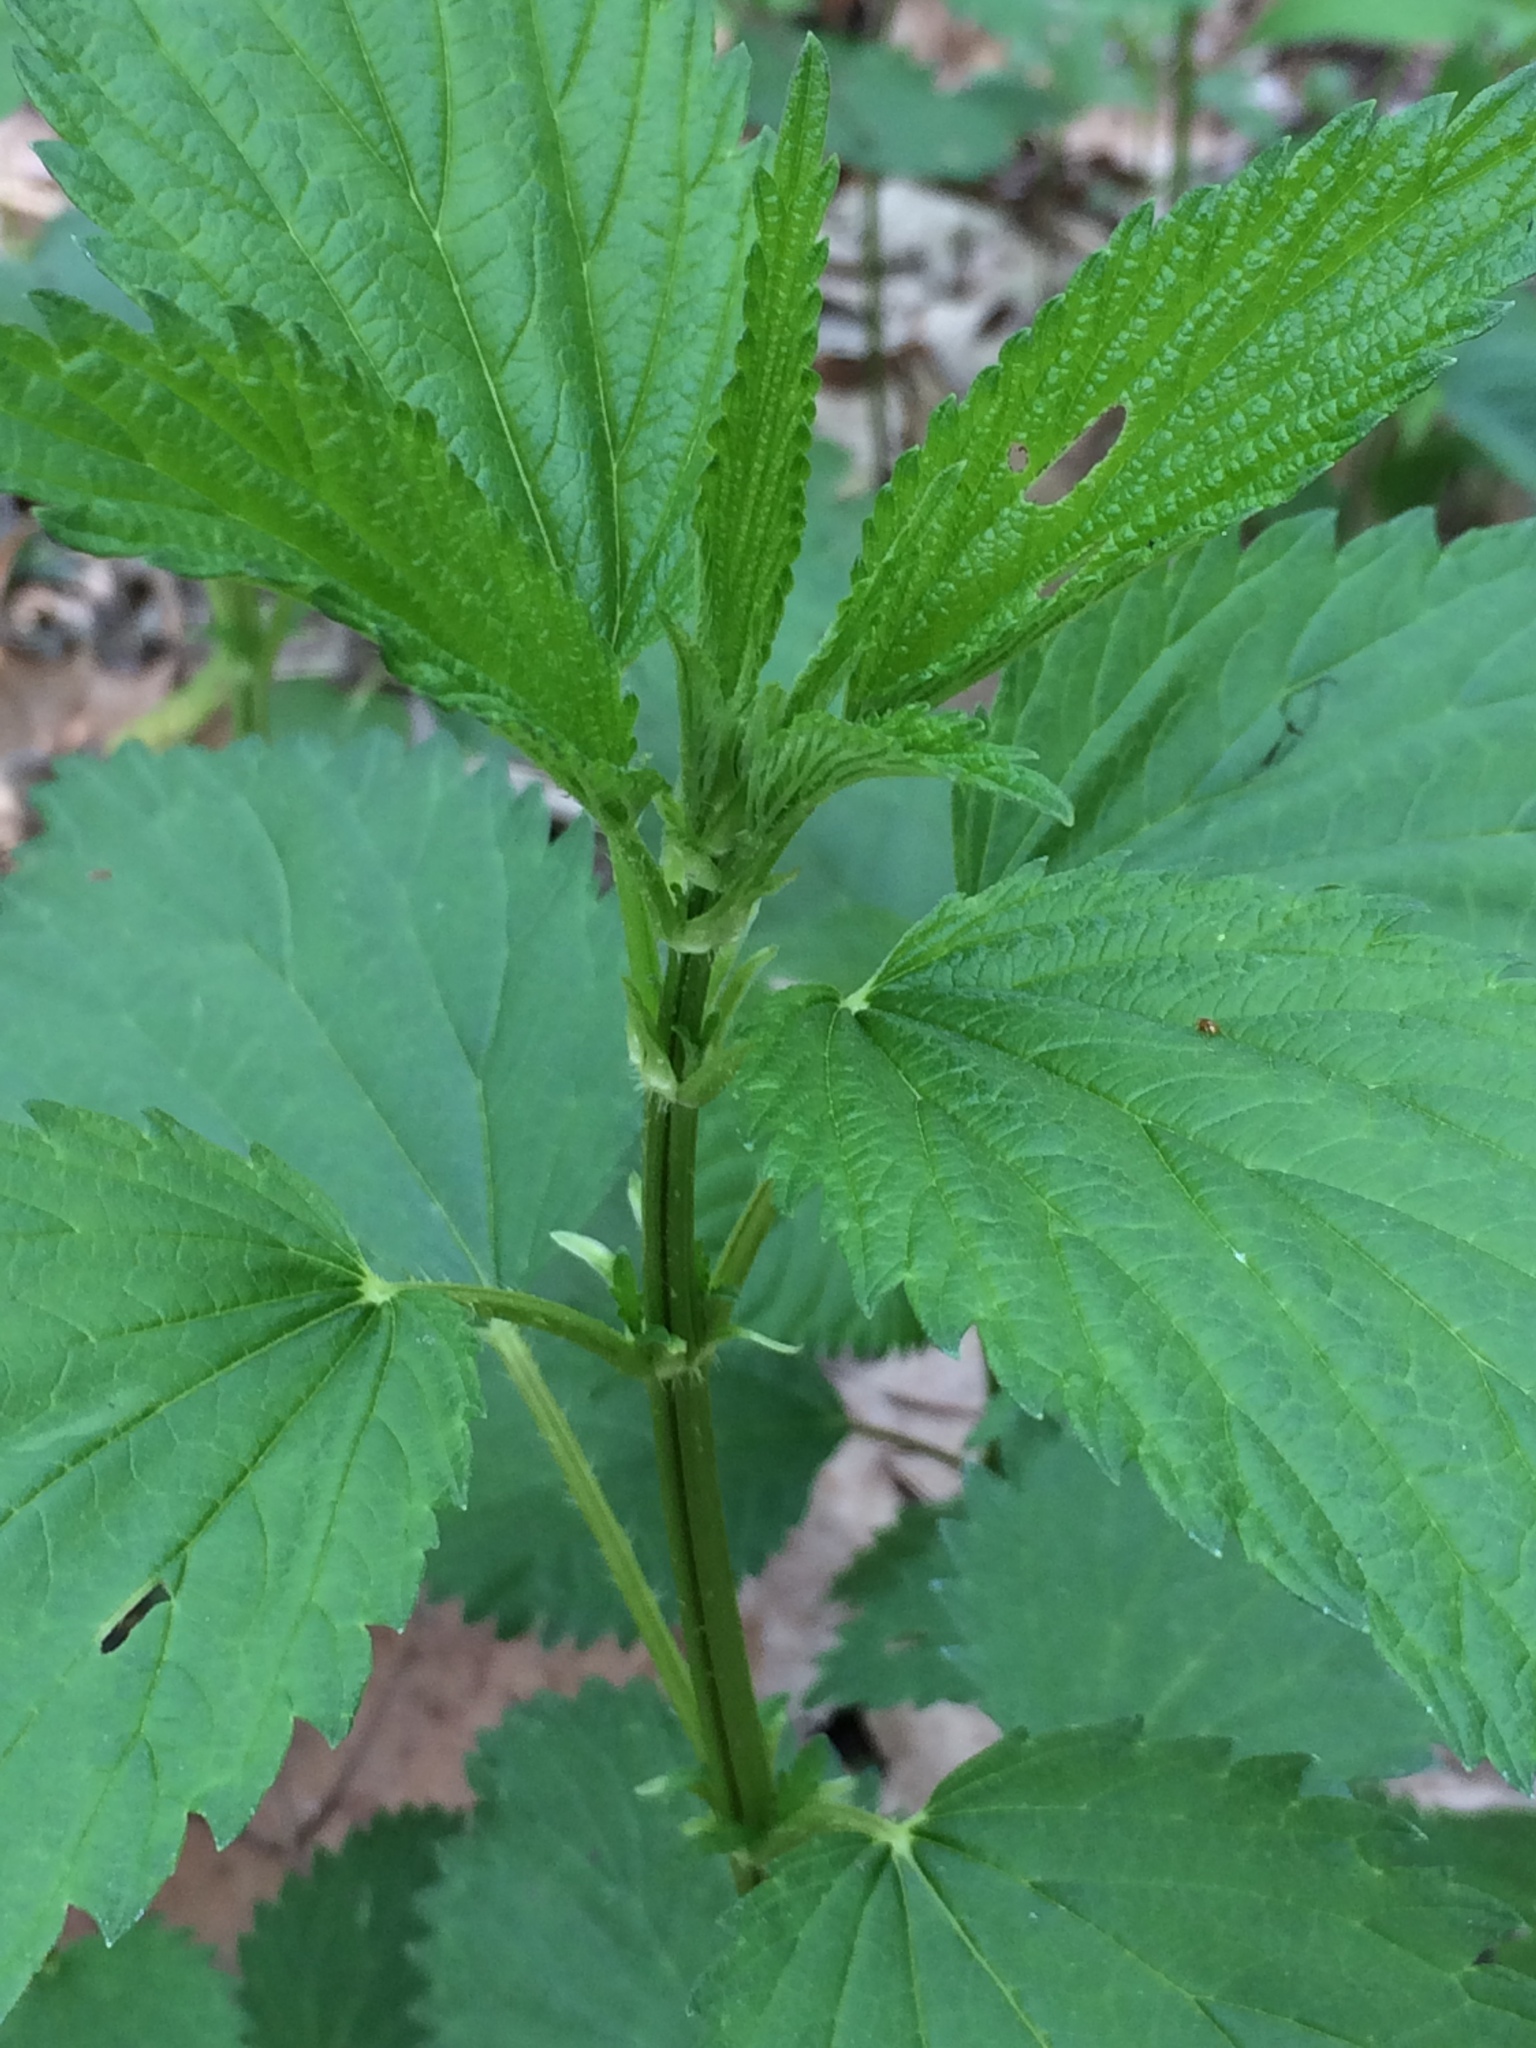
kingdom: Plantae
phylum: Tracheophyta
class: Magnoliopsida
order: Rosales
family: Urticaceae
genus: Urtica
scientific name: Urtica dioica
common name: Common nettle
